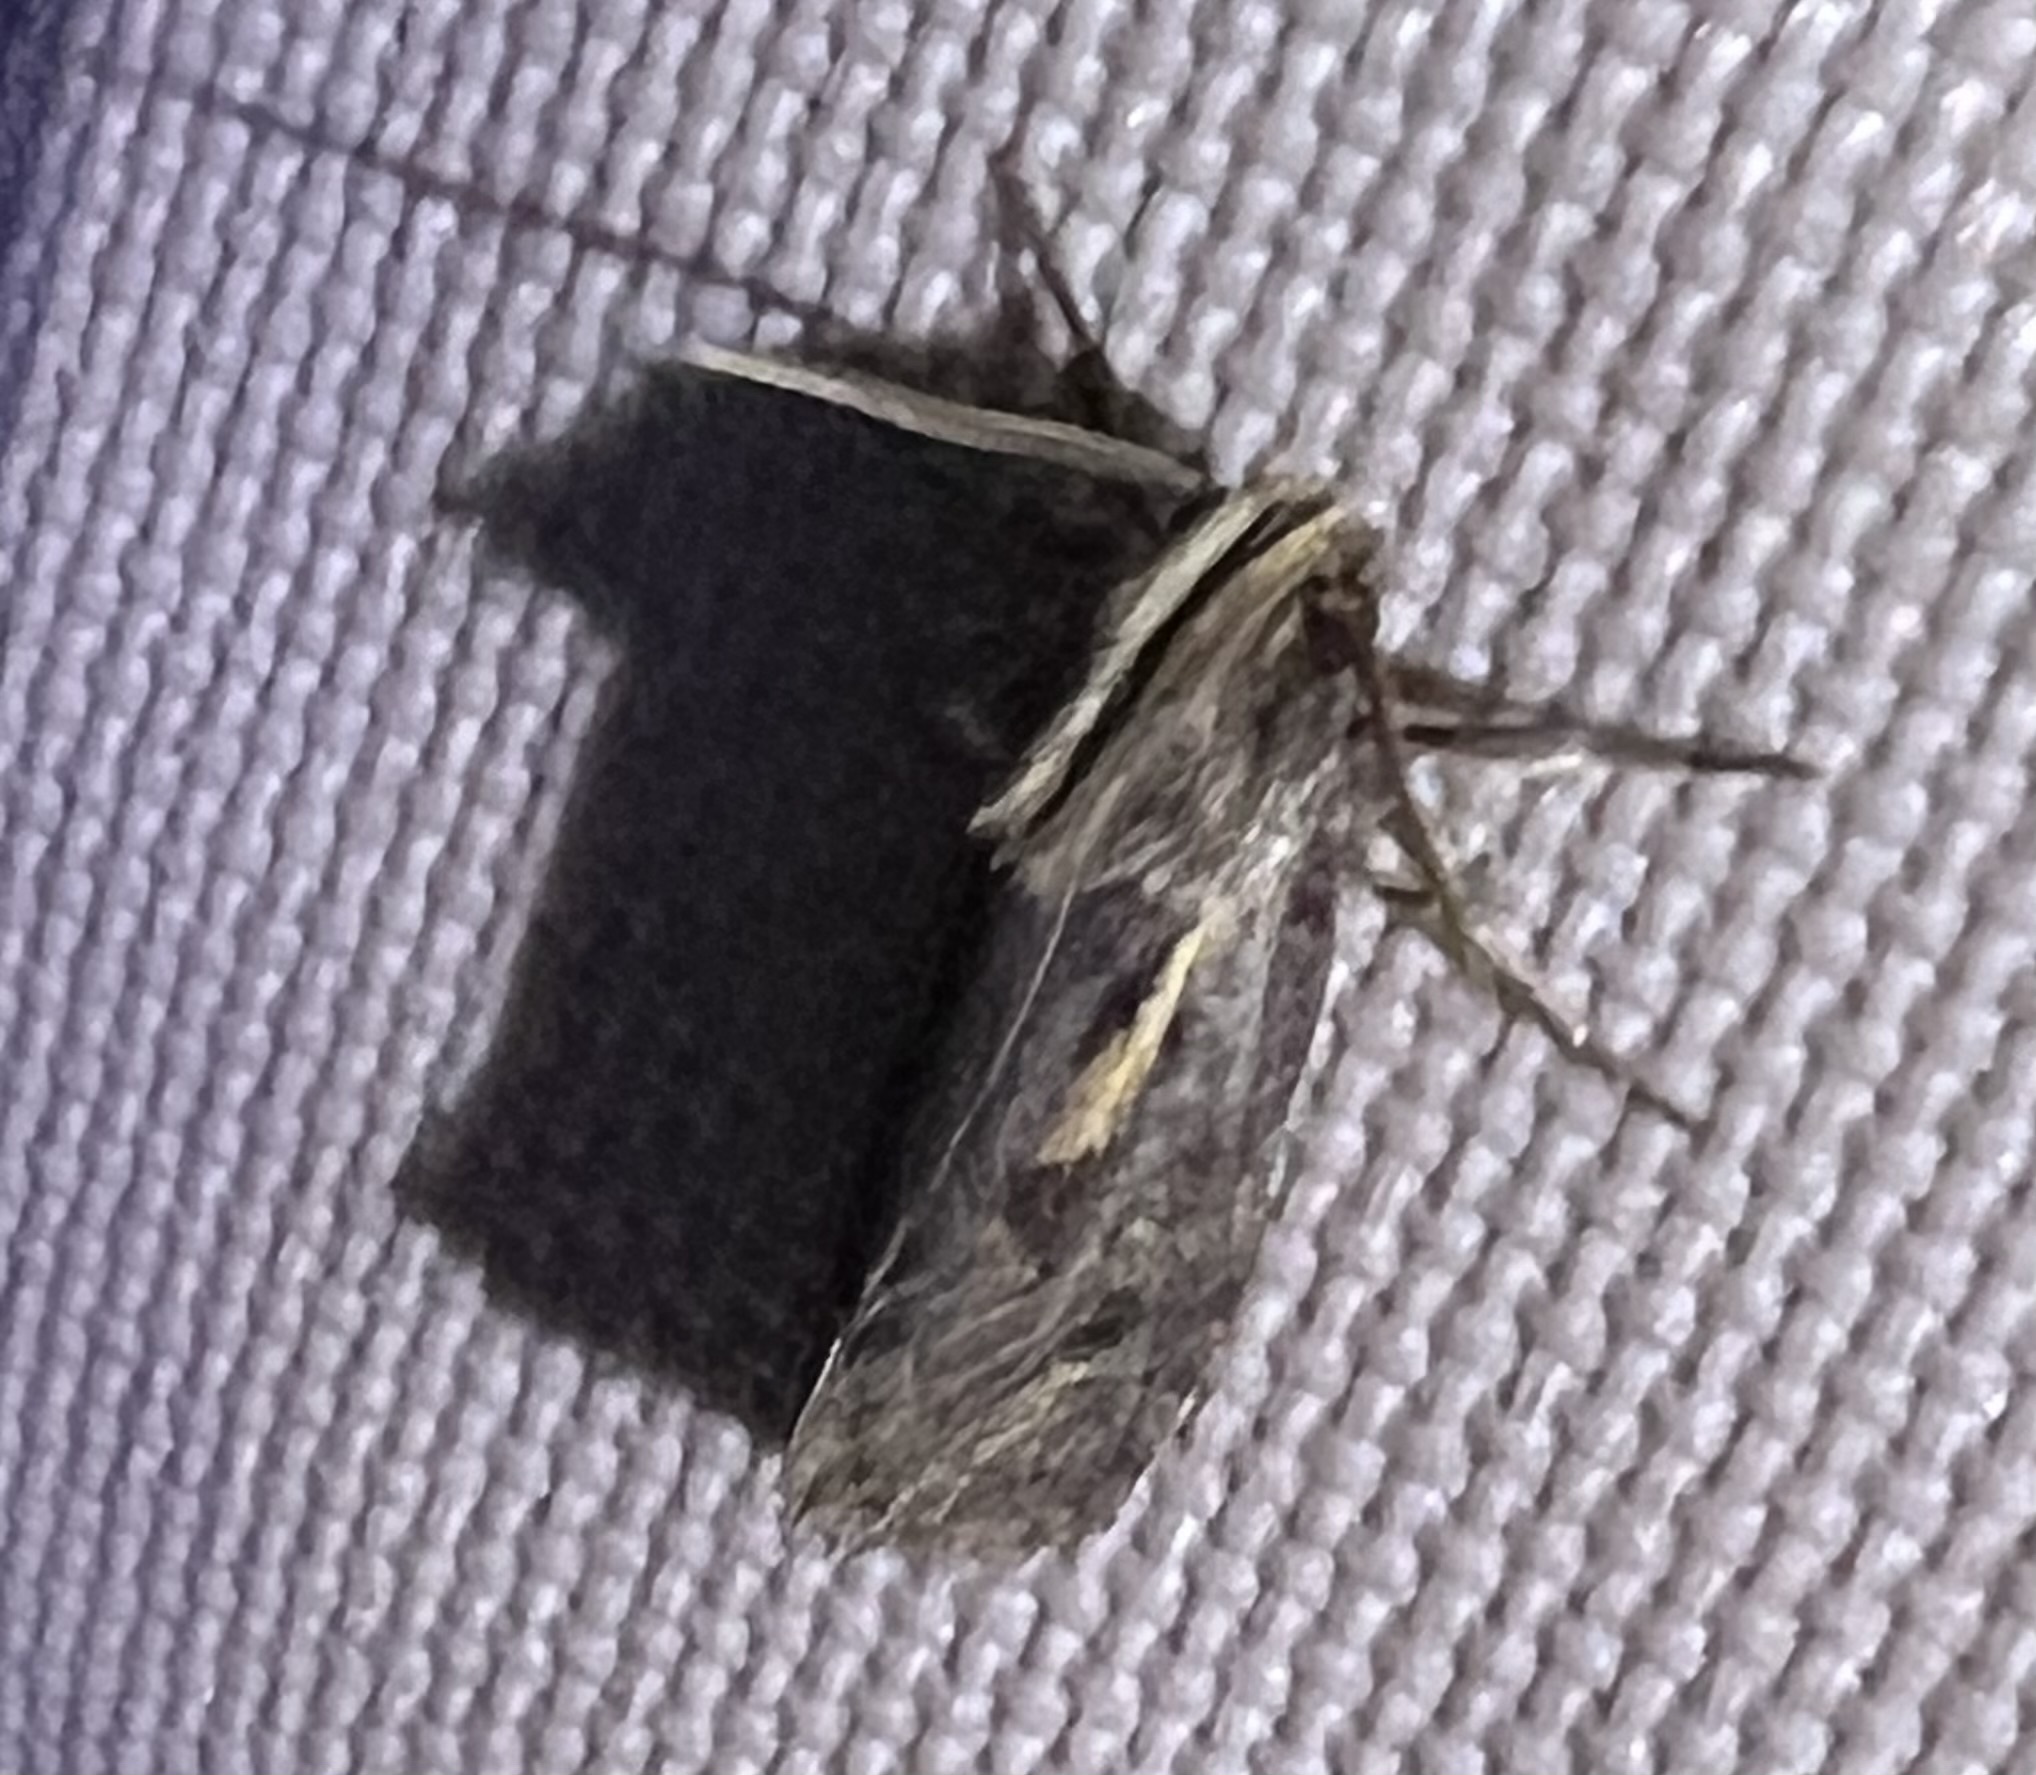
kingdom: Animalia
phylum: Arthropoda
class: Insecta
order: Lepidoptera
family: Tineidae
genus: Acrolophus
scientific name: Acrolophus popeanella
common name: Clemens' grass tubeworm moth
